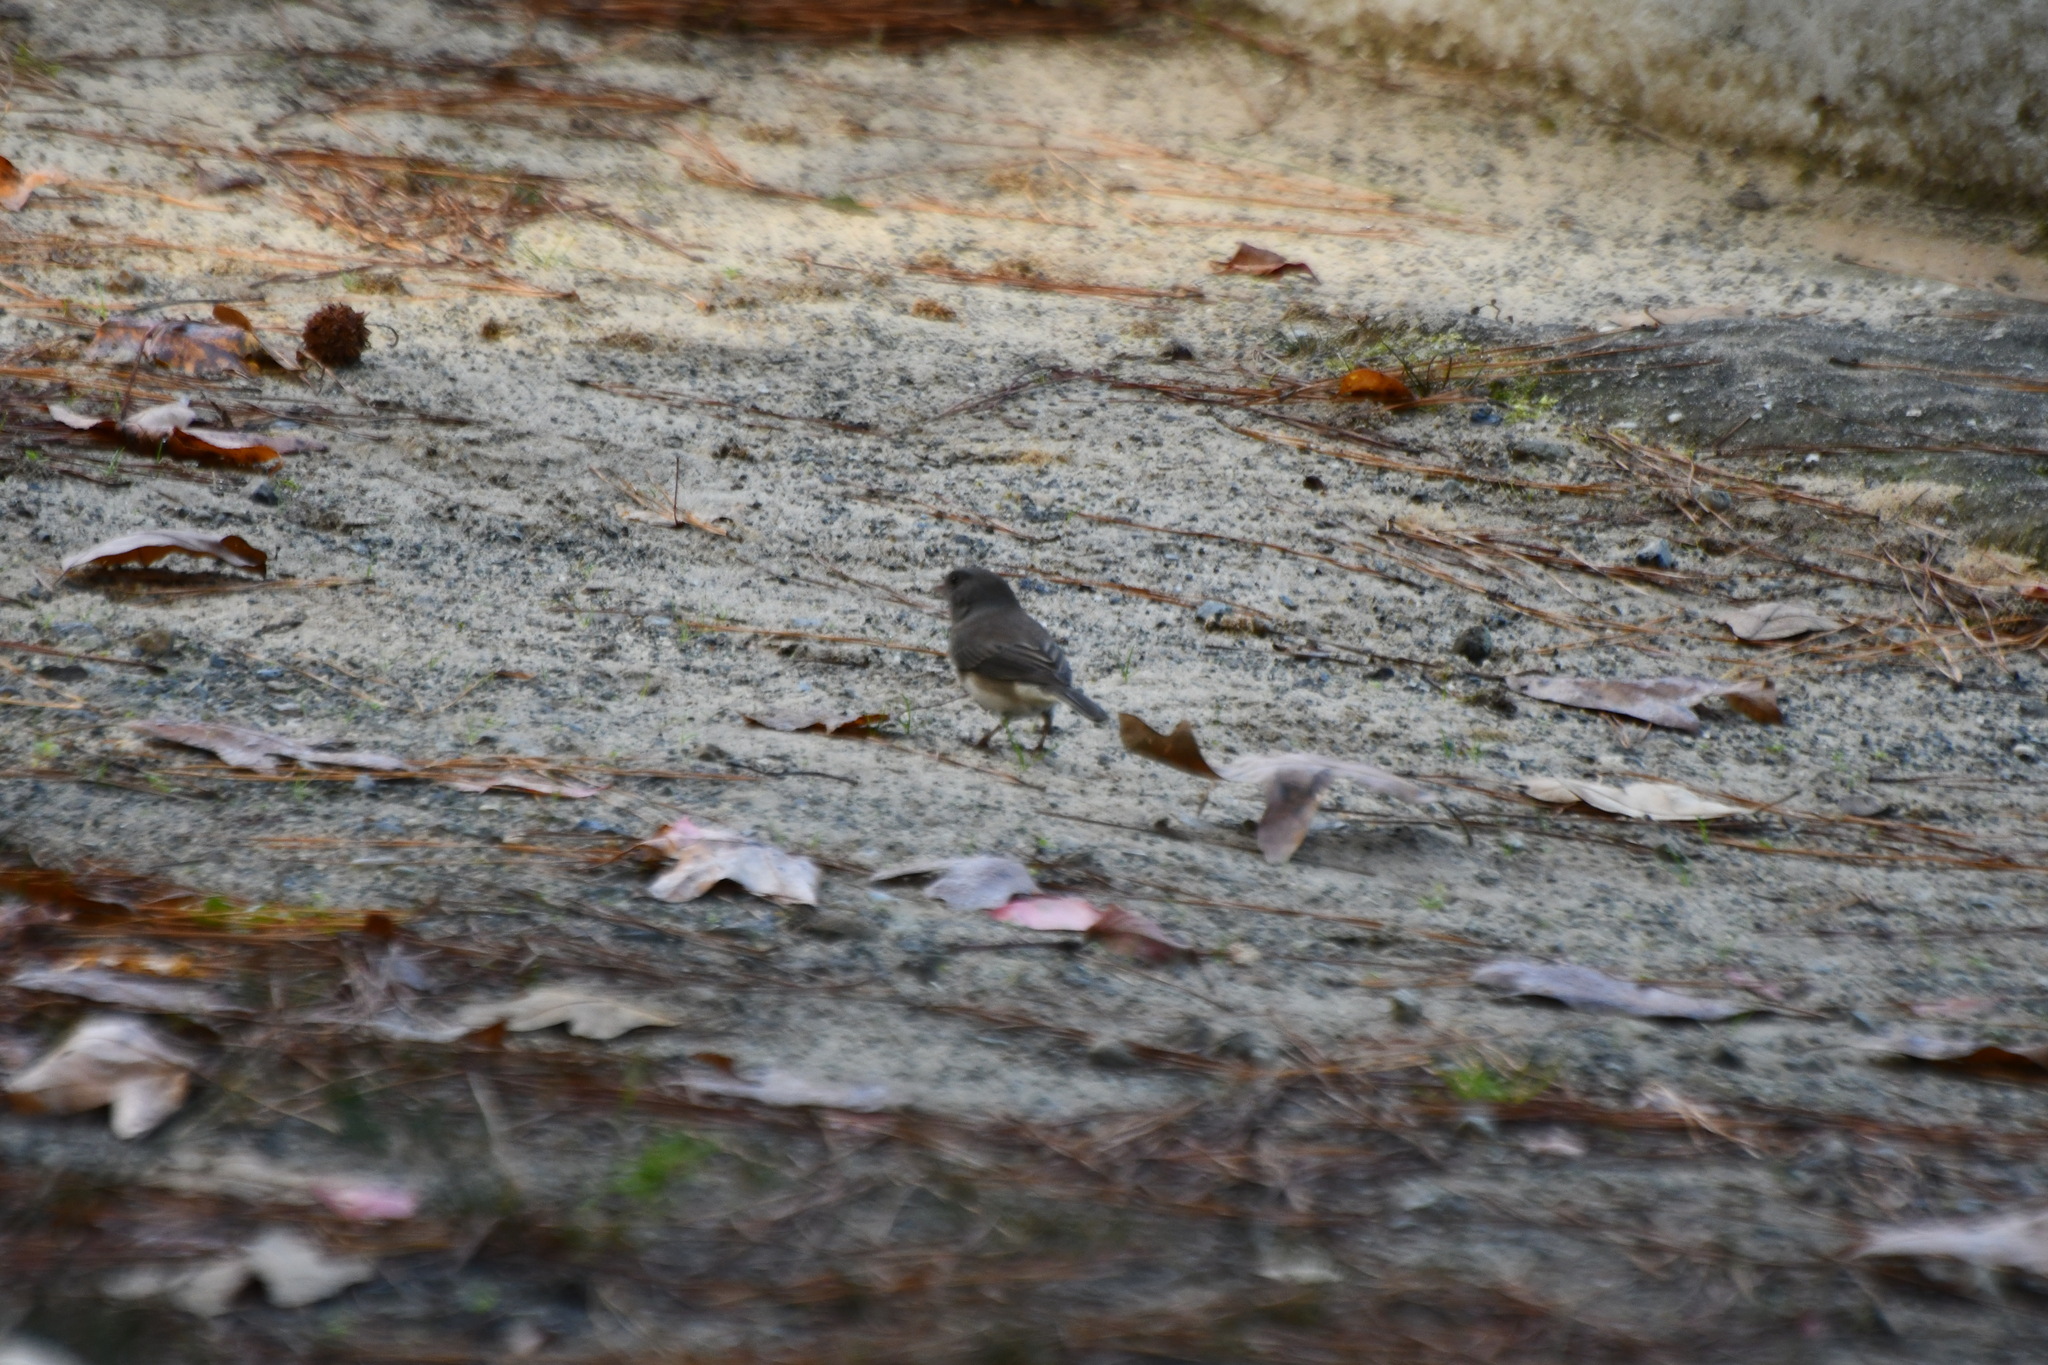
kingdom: Animalia
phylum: Chordata
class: Aves
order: Passeriformes
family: Passerellidae
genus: Junco
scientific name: Junco hyemalis
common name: Dark-eyed junco
